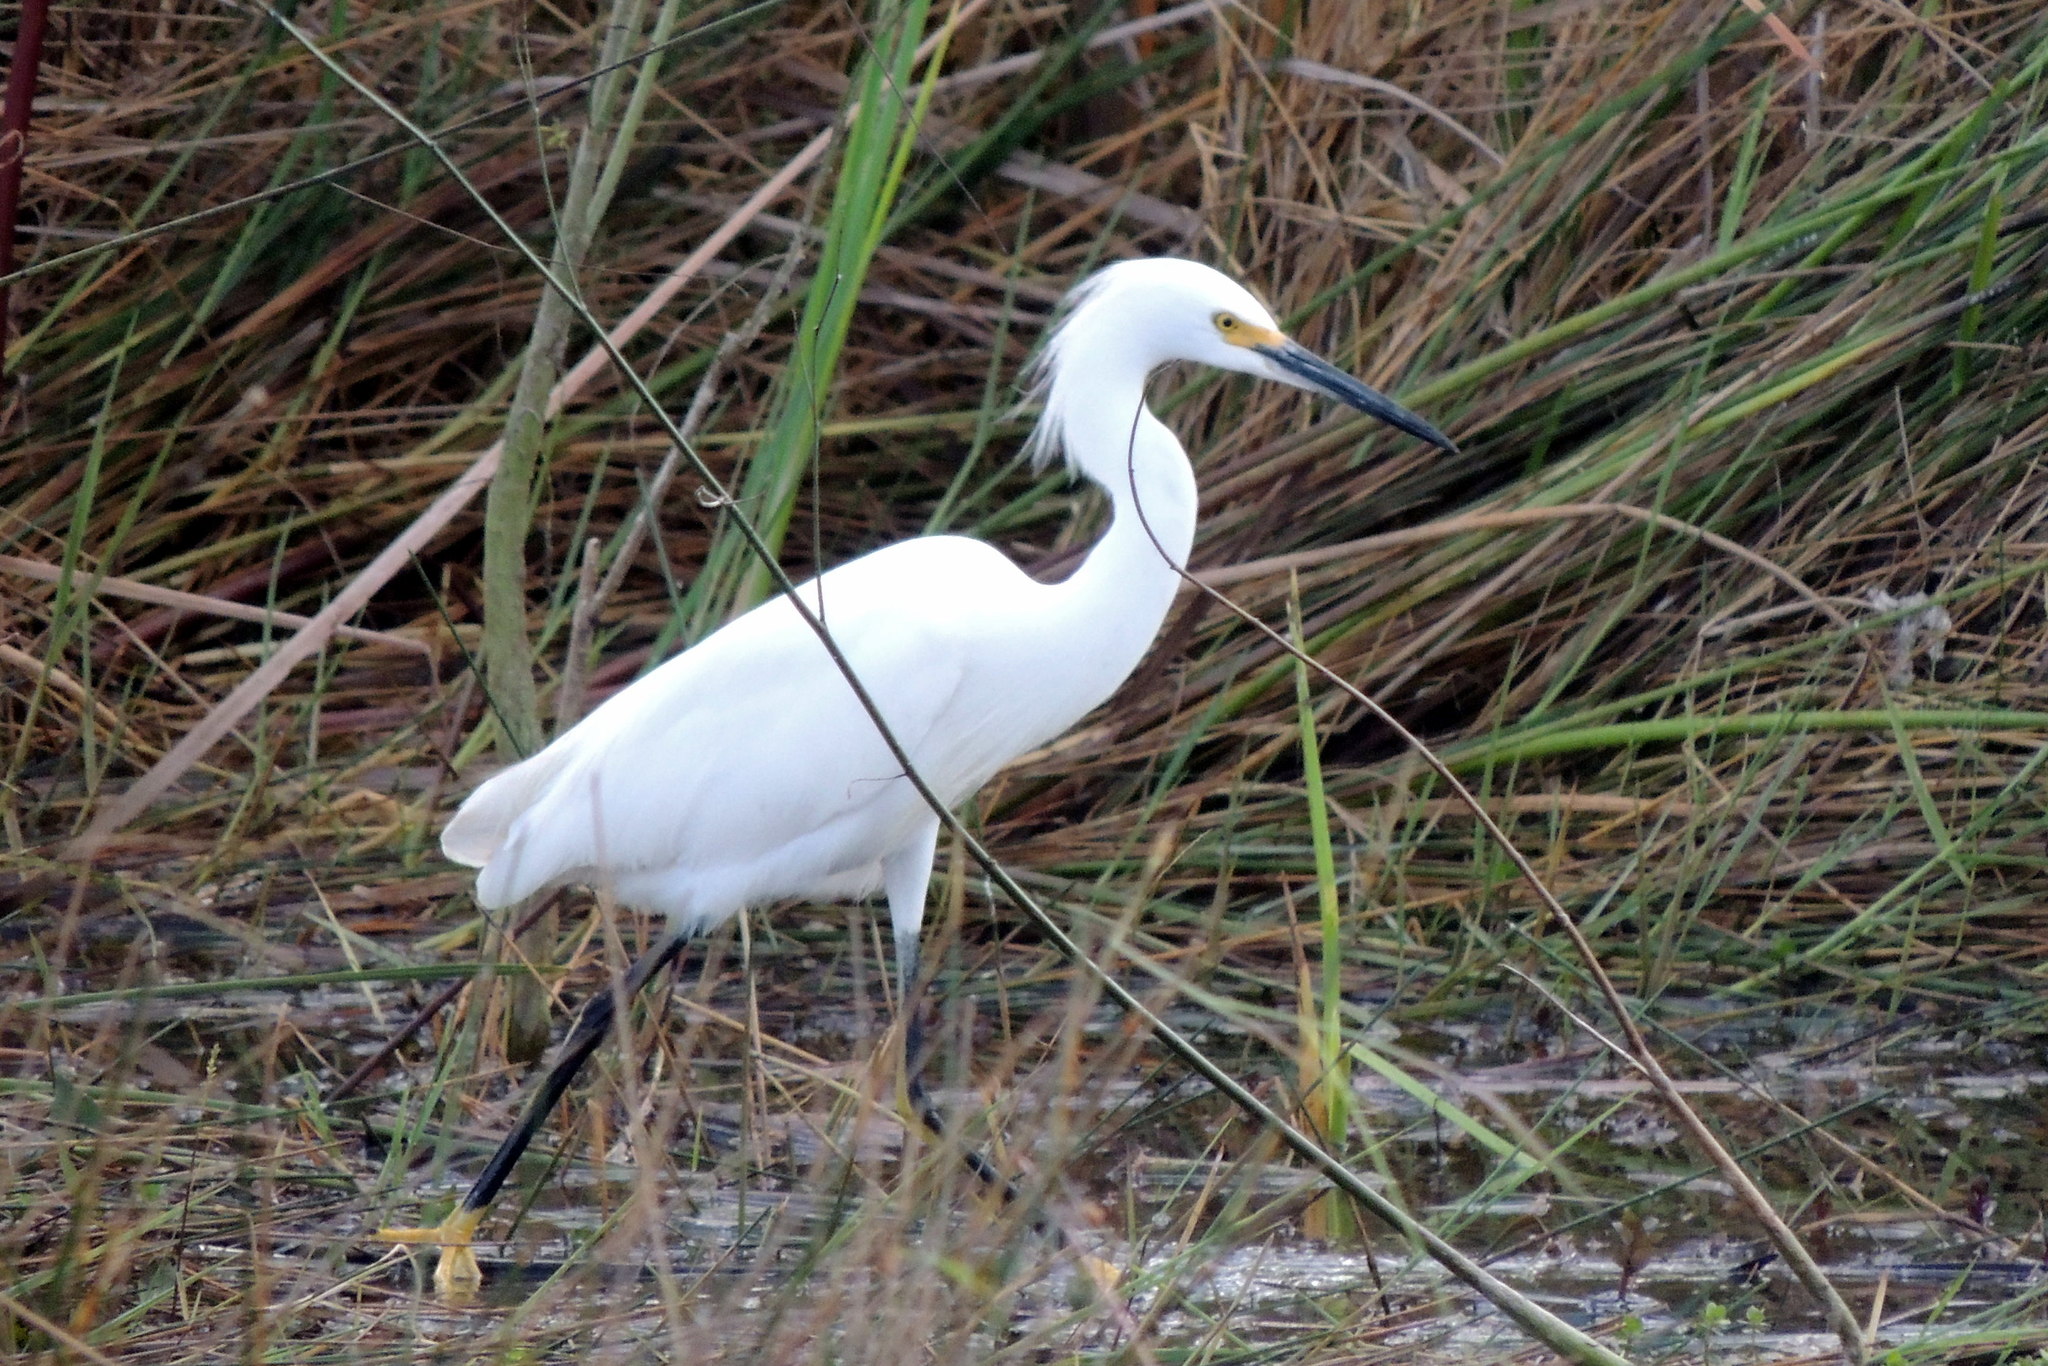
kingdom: Animalia
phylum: Chordata
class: Aves
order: Pelecaniformes
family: Ardeidae
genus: Egretta
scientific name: Egretta thula
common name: Snowy egret
